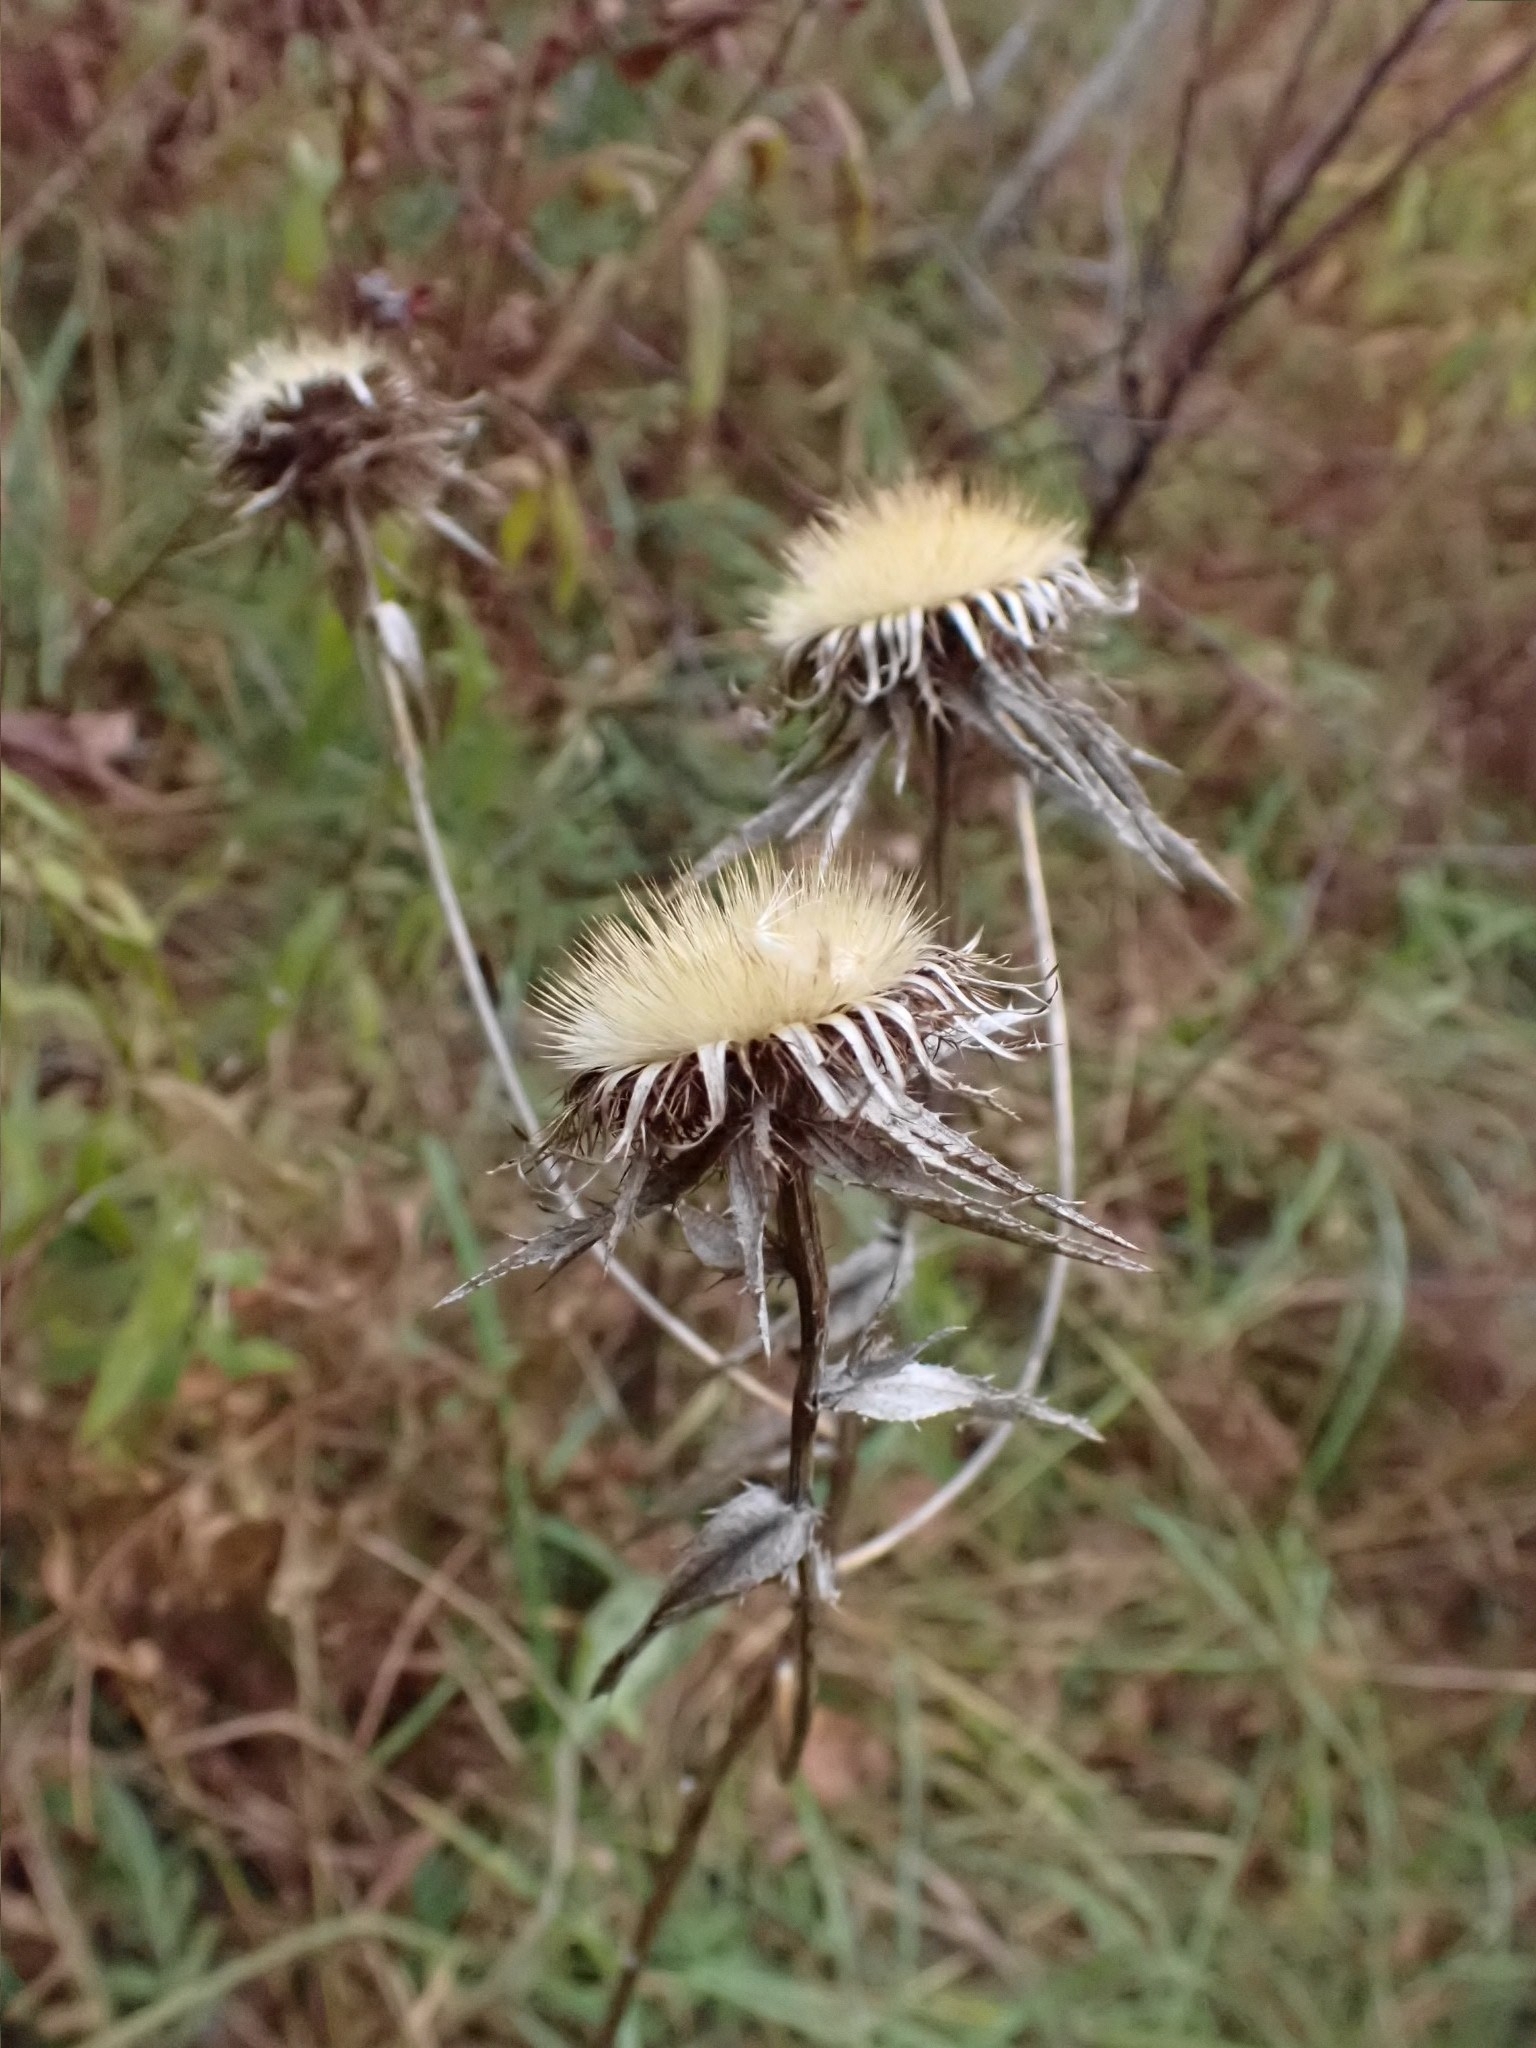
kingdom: Plantae
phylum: Tracheophyta
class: Magnoliopsida
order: Asterales
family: Asteraceae
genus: Carlina
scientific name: Carlina biebersteinii
